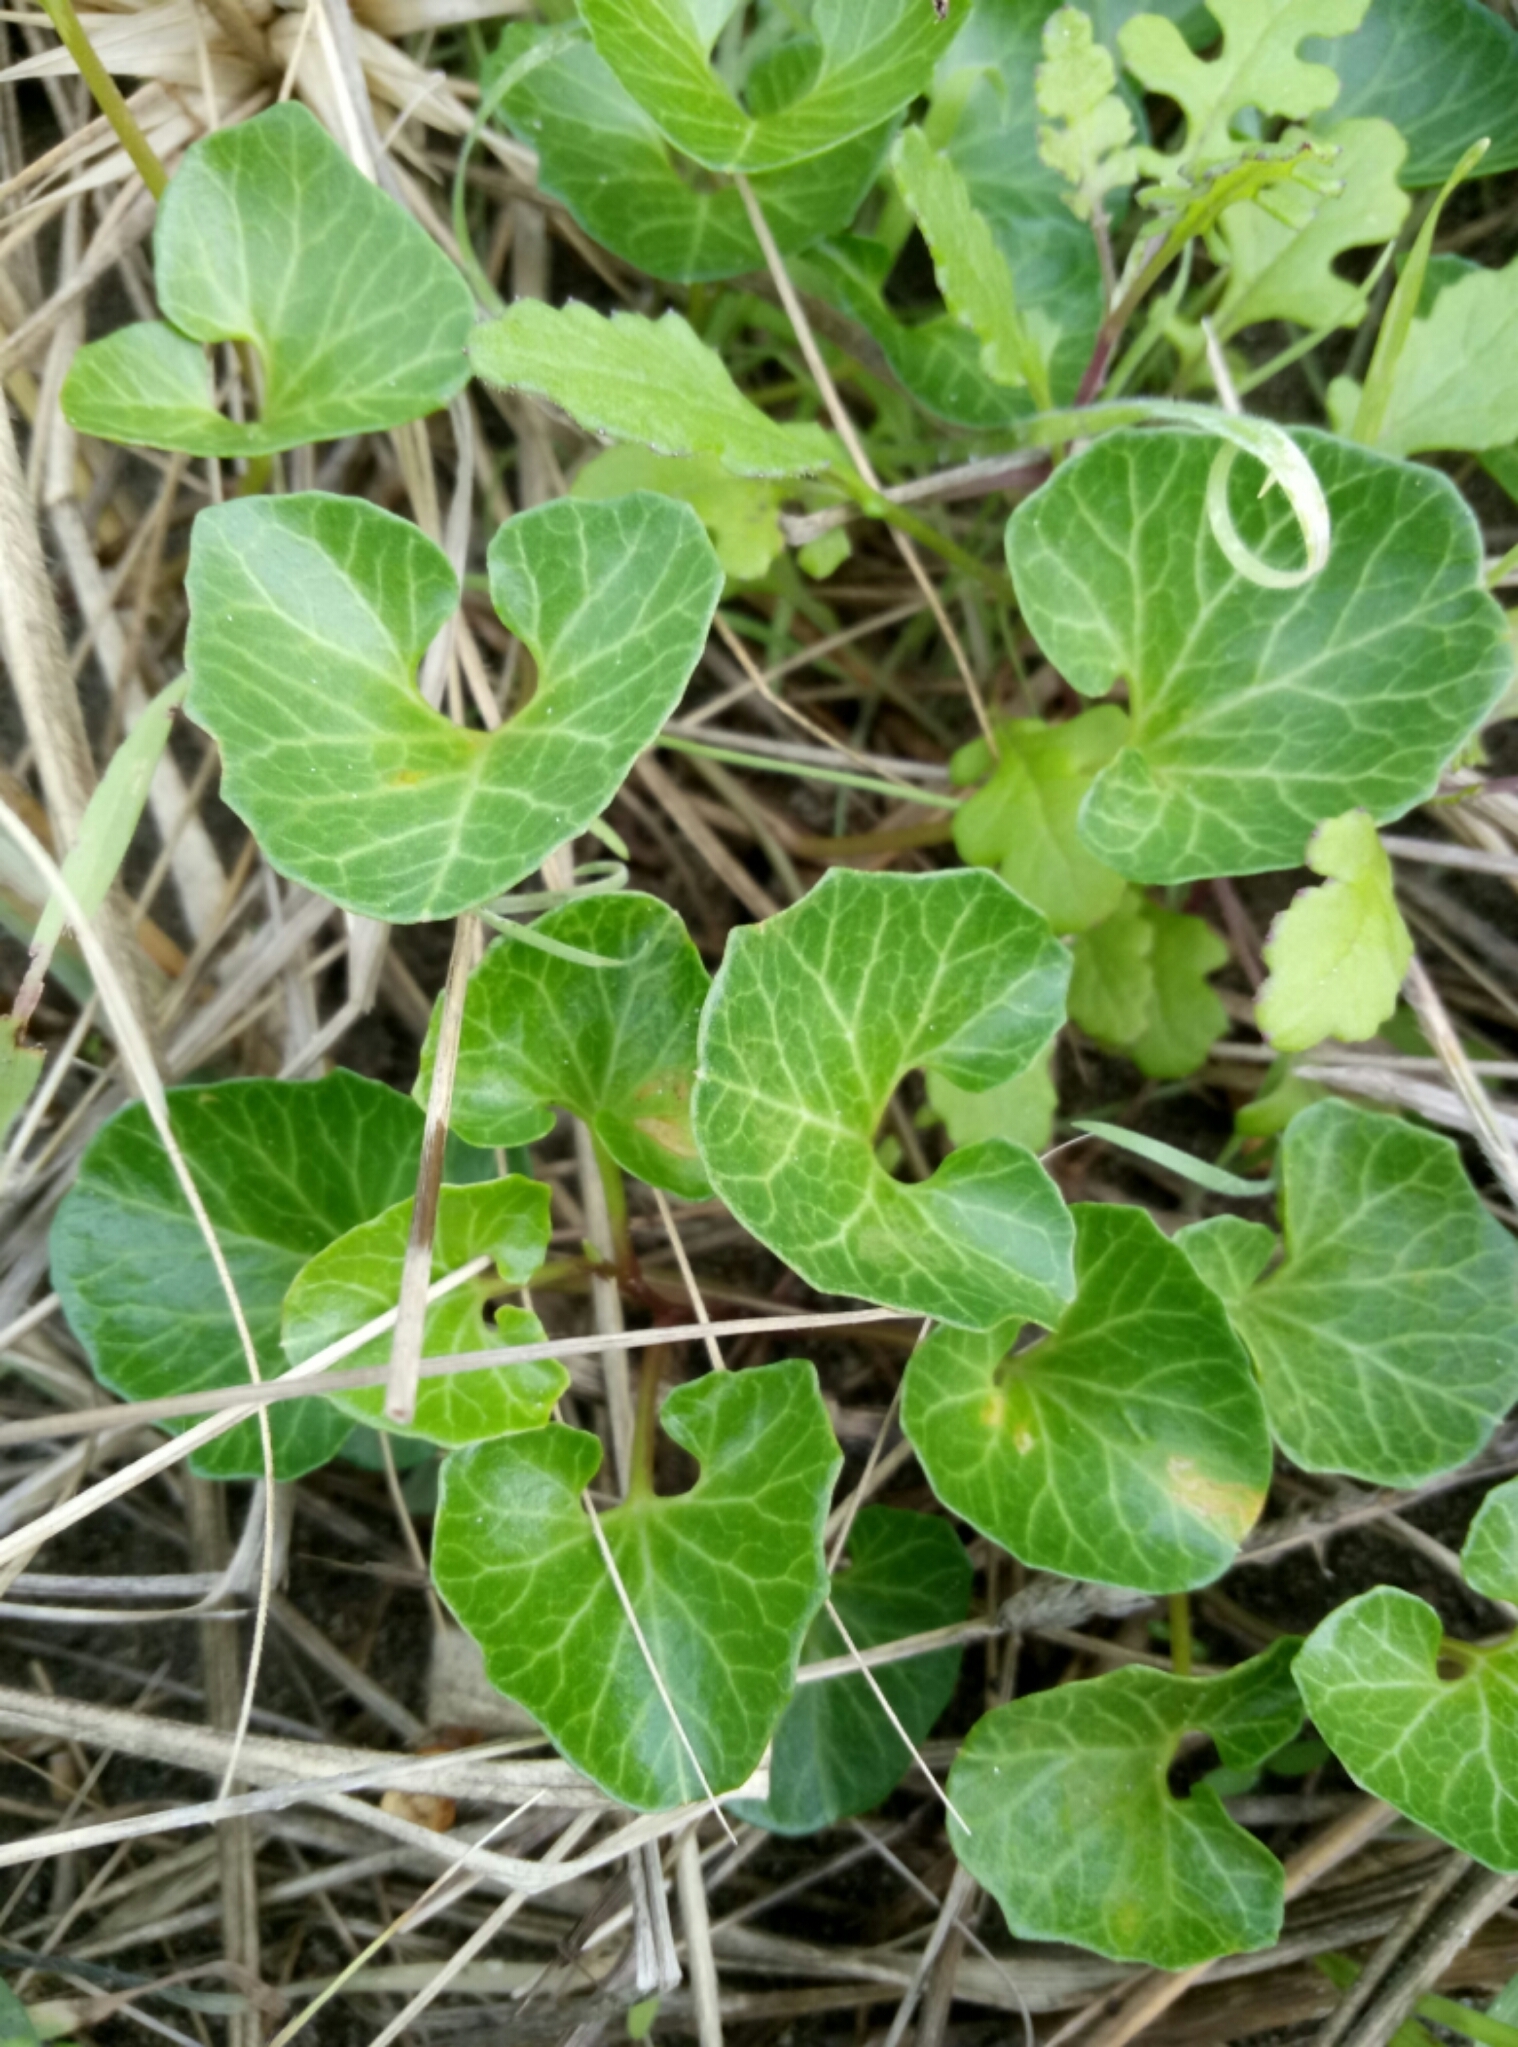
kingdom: Plantae
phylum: Tracheophyta
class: Magnoliopsida
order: Solanales
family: Convolvulaceae
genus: Calystegia
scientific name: Calystegia soldanella
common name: Sea bindweed
